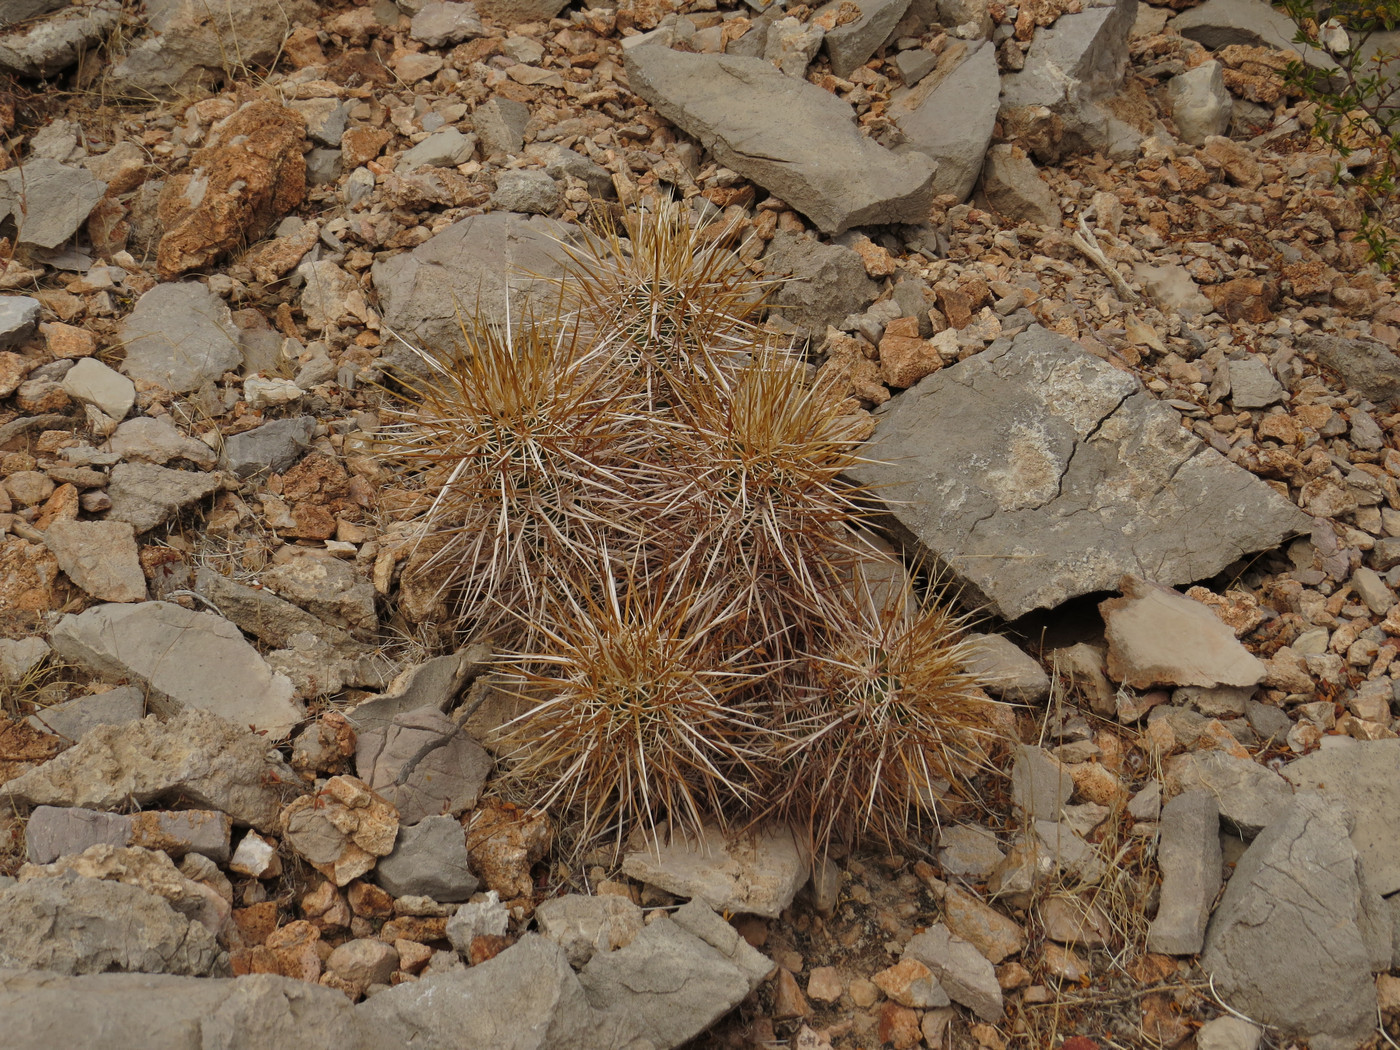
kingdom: Plantae
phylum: Tracheophyta
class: Magnoliopsida
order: Caryophyllales
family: Cactaceae
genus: Echinocereus
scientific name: Echinocereus engelmannii
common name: Engelmann's hedgehog cactus
